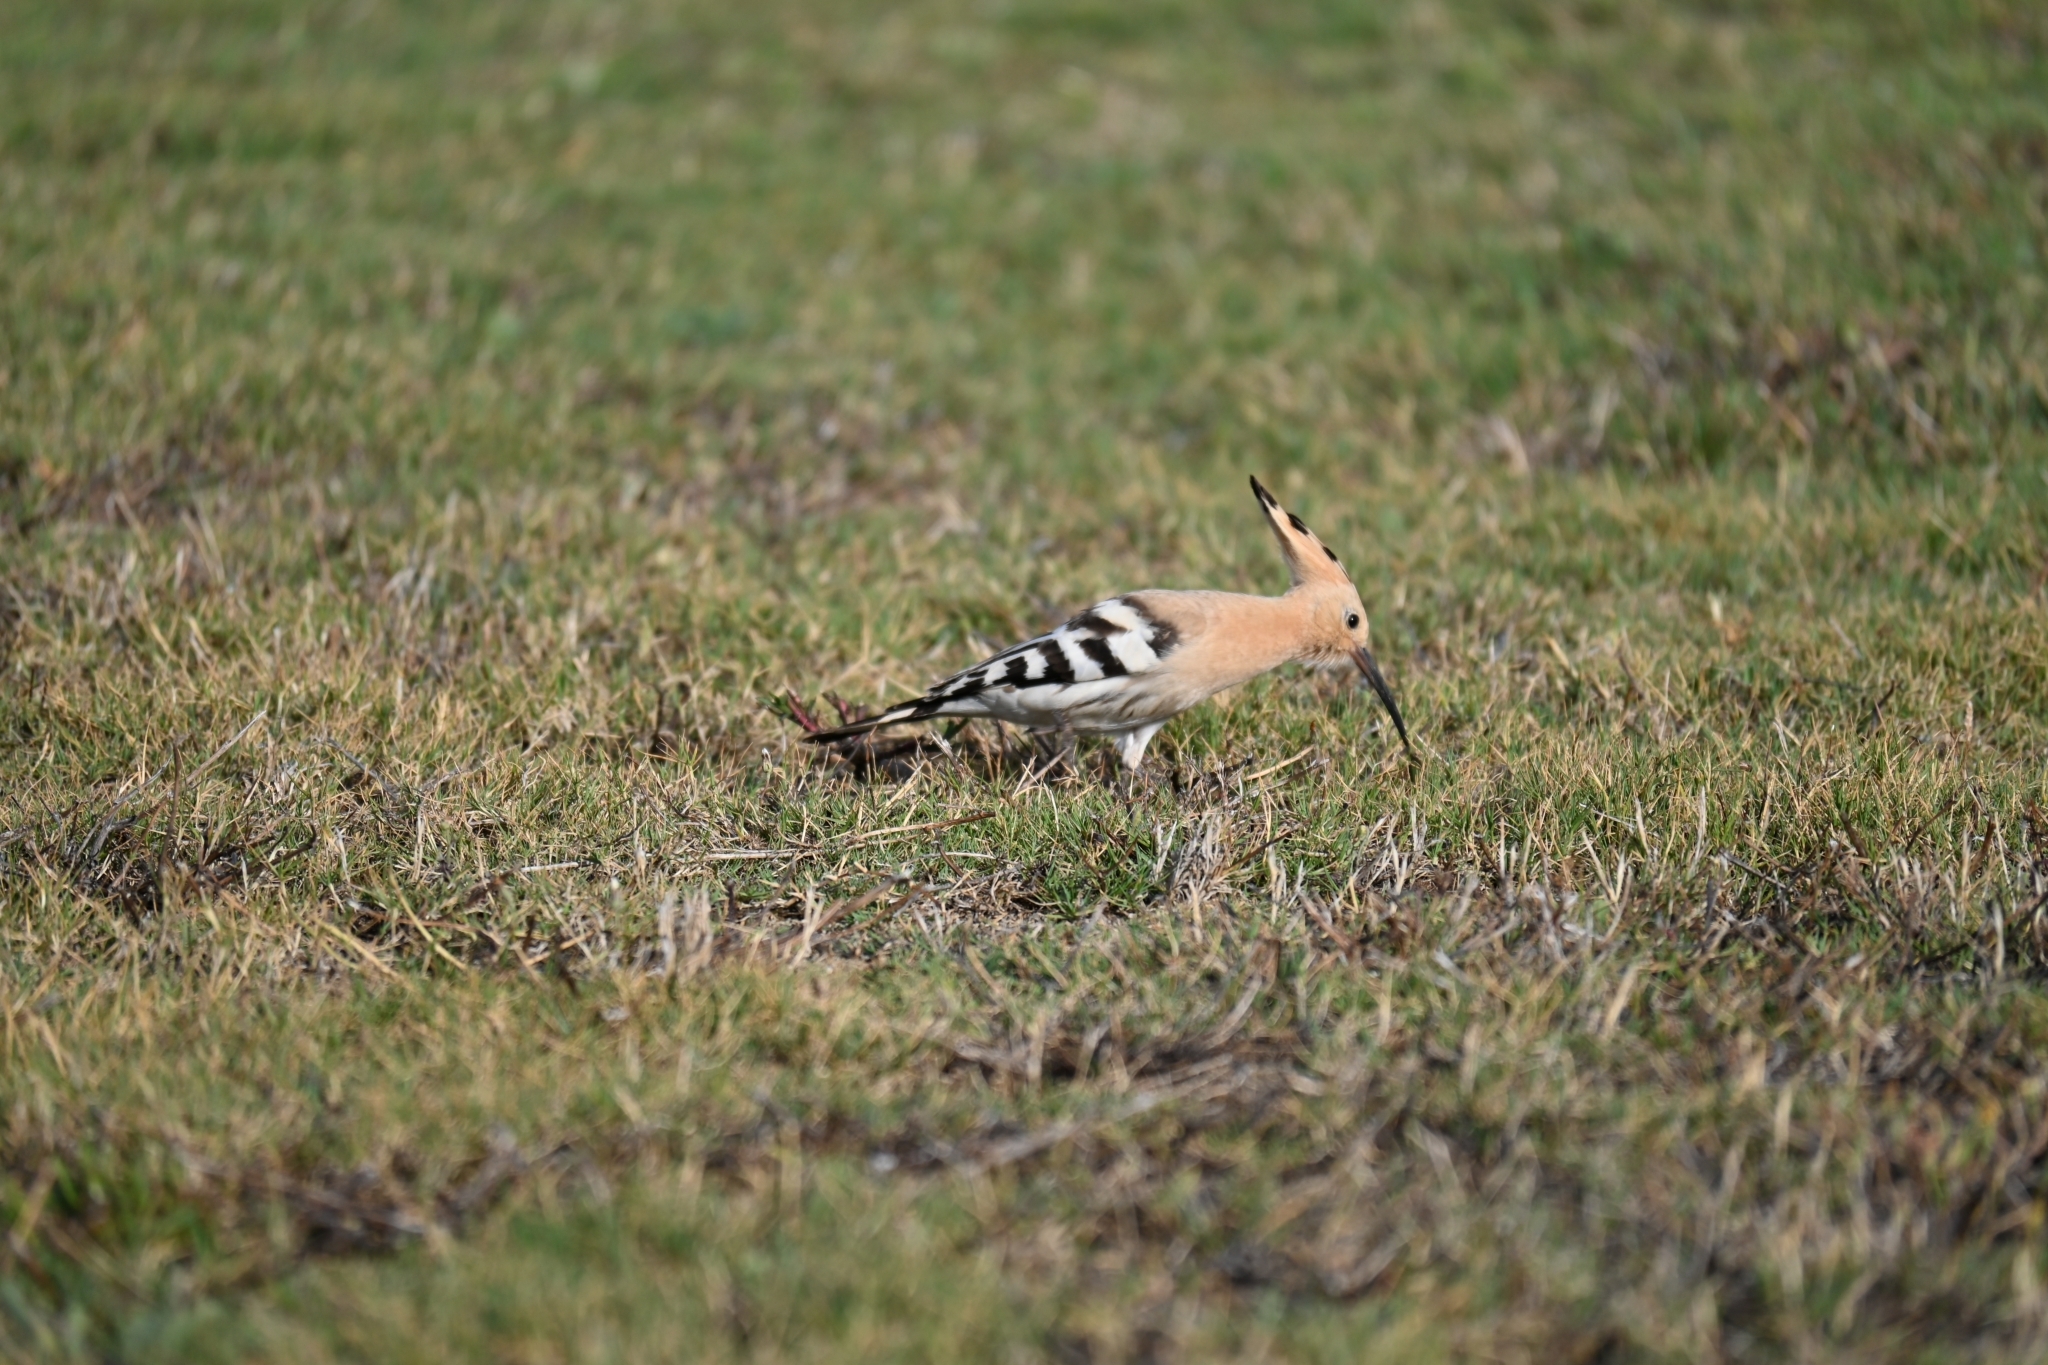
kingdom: Animalia
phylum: Chordata
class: Aves
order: Bucerotiformes
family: Upupidae
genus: Upupa
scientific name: Upupa epops
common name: Eurasian hoopoe
